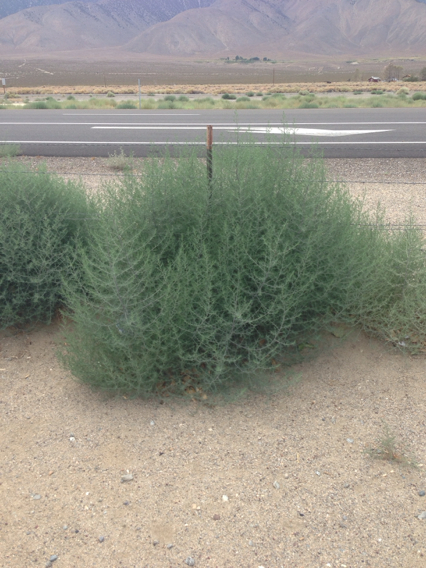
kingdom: Plantae
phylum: Tracheophyta
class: Magnoliopsida
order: Caryophyllales
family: Amaranthaceae
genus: Salsola
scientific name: Salsola tragus
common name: Prickly russian thistle
